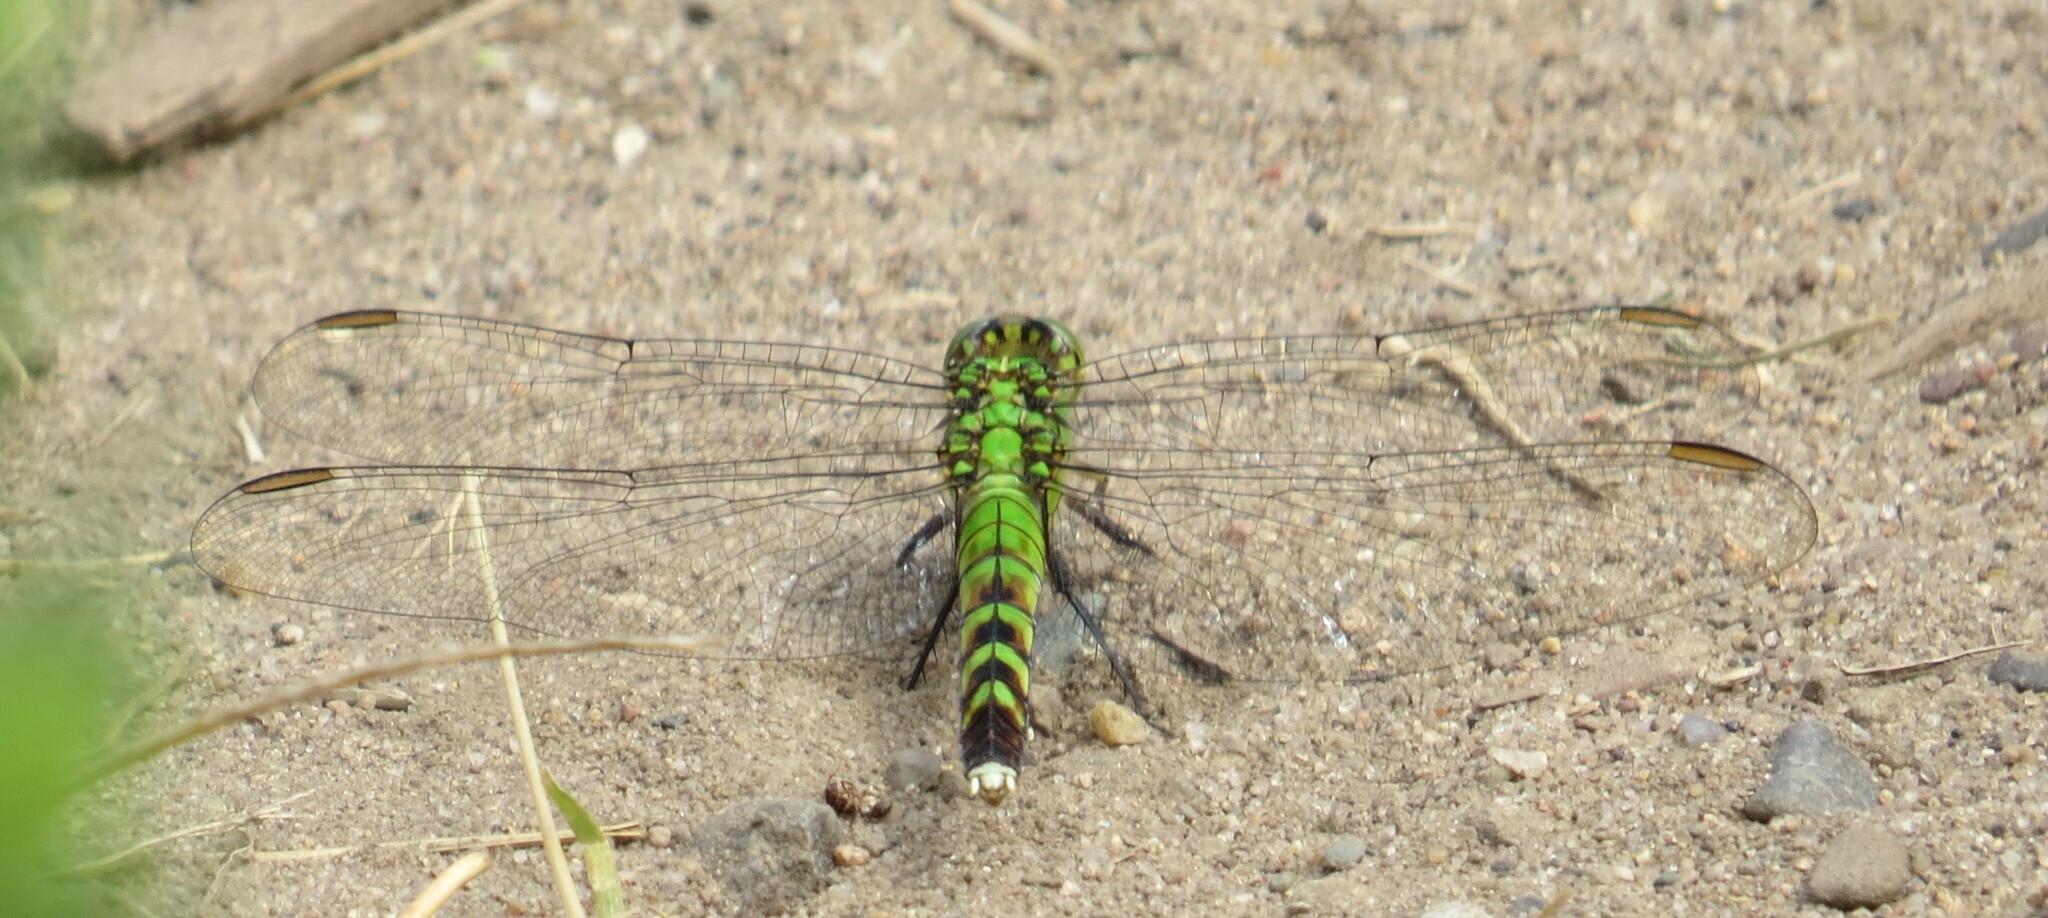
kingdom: Animalia
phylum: Arthropoda
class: Insecta
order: Odonata
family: Libellulidae
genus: Erythemis
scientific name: Erythemis simplicicollis
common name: Eastern pondhawk
